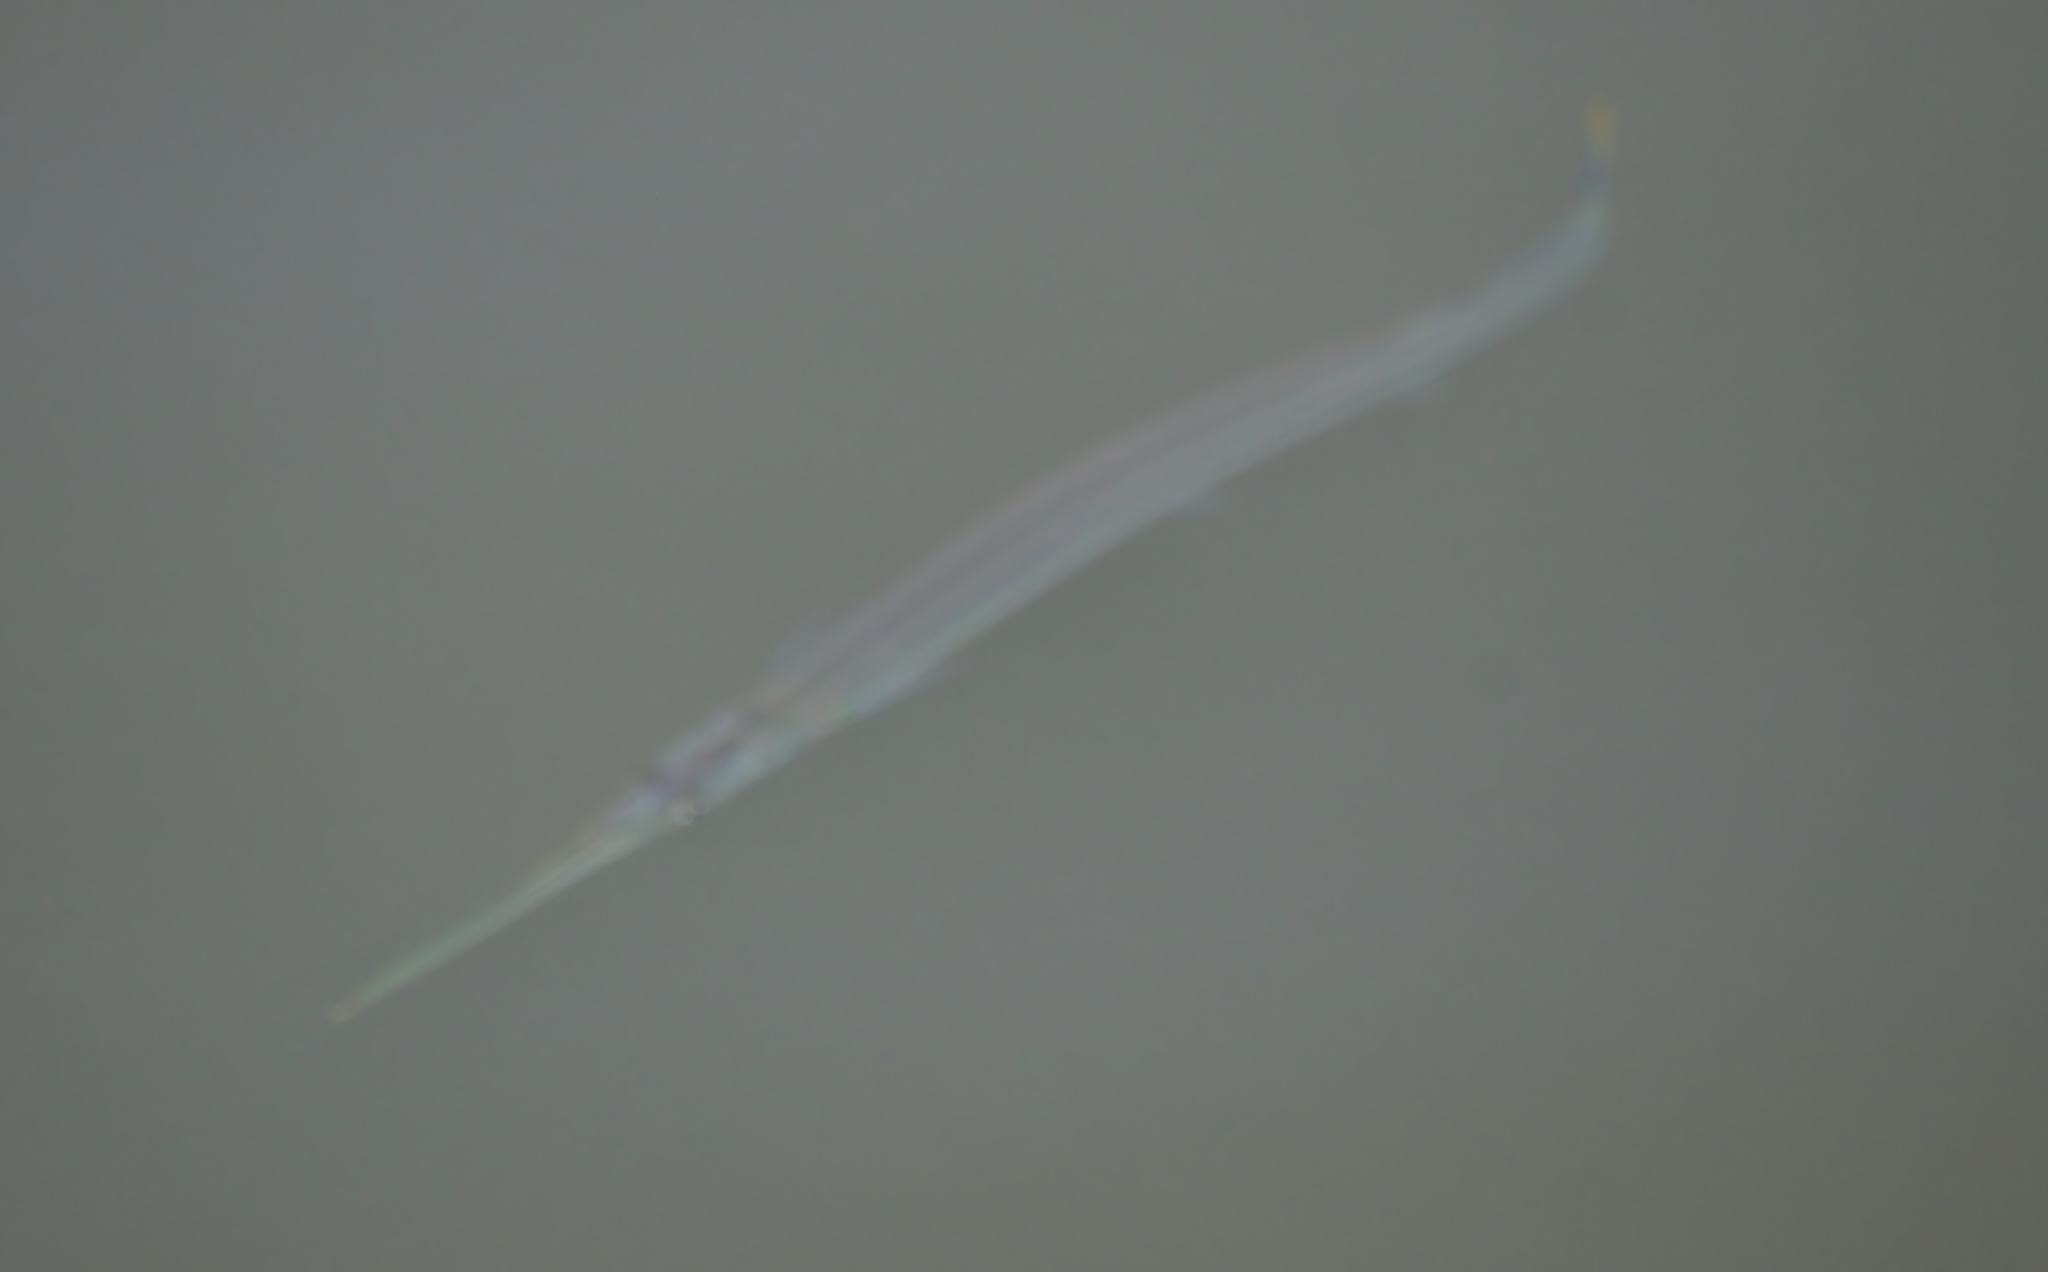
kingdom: Animalia
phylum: Chordata
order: Beloniformes
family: Belonidae
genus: Strongylura
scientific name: Strongylura marina
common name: Atlantic needlefish
